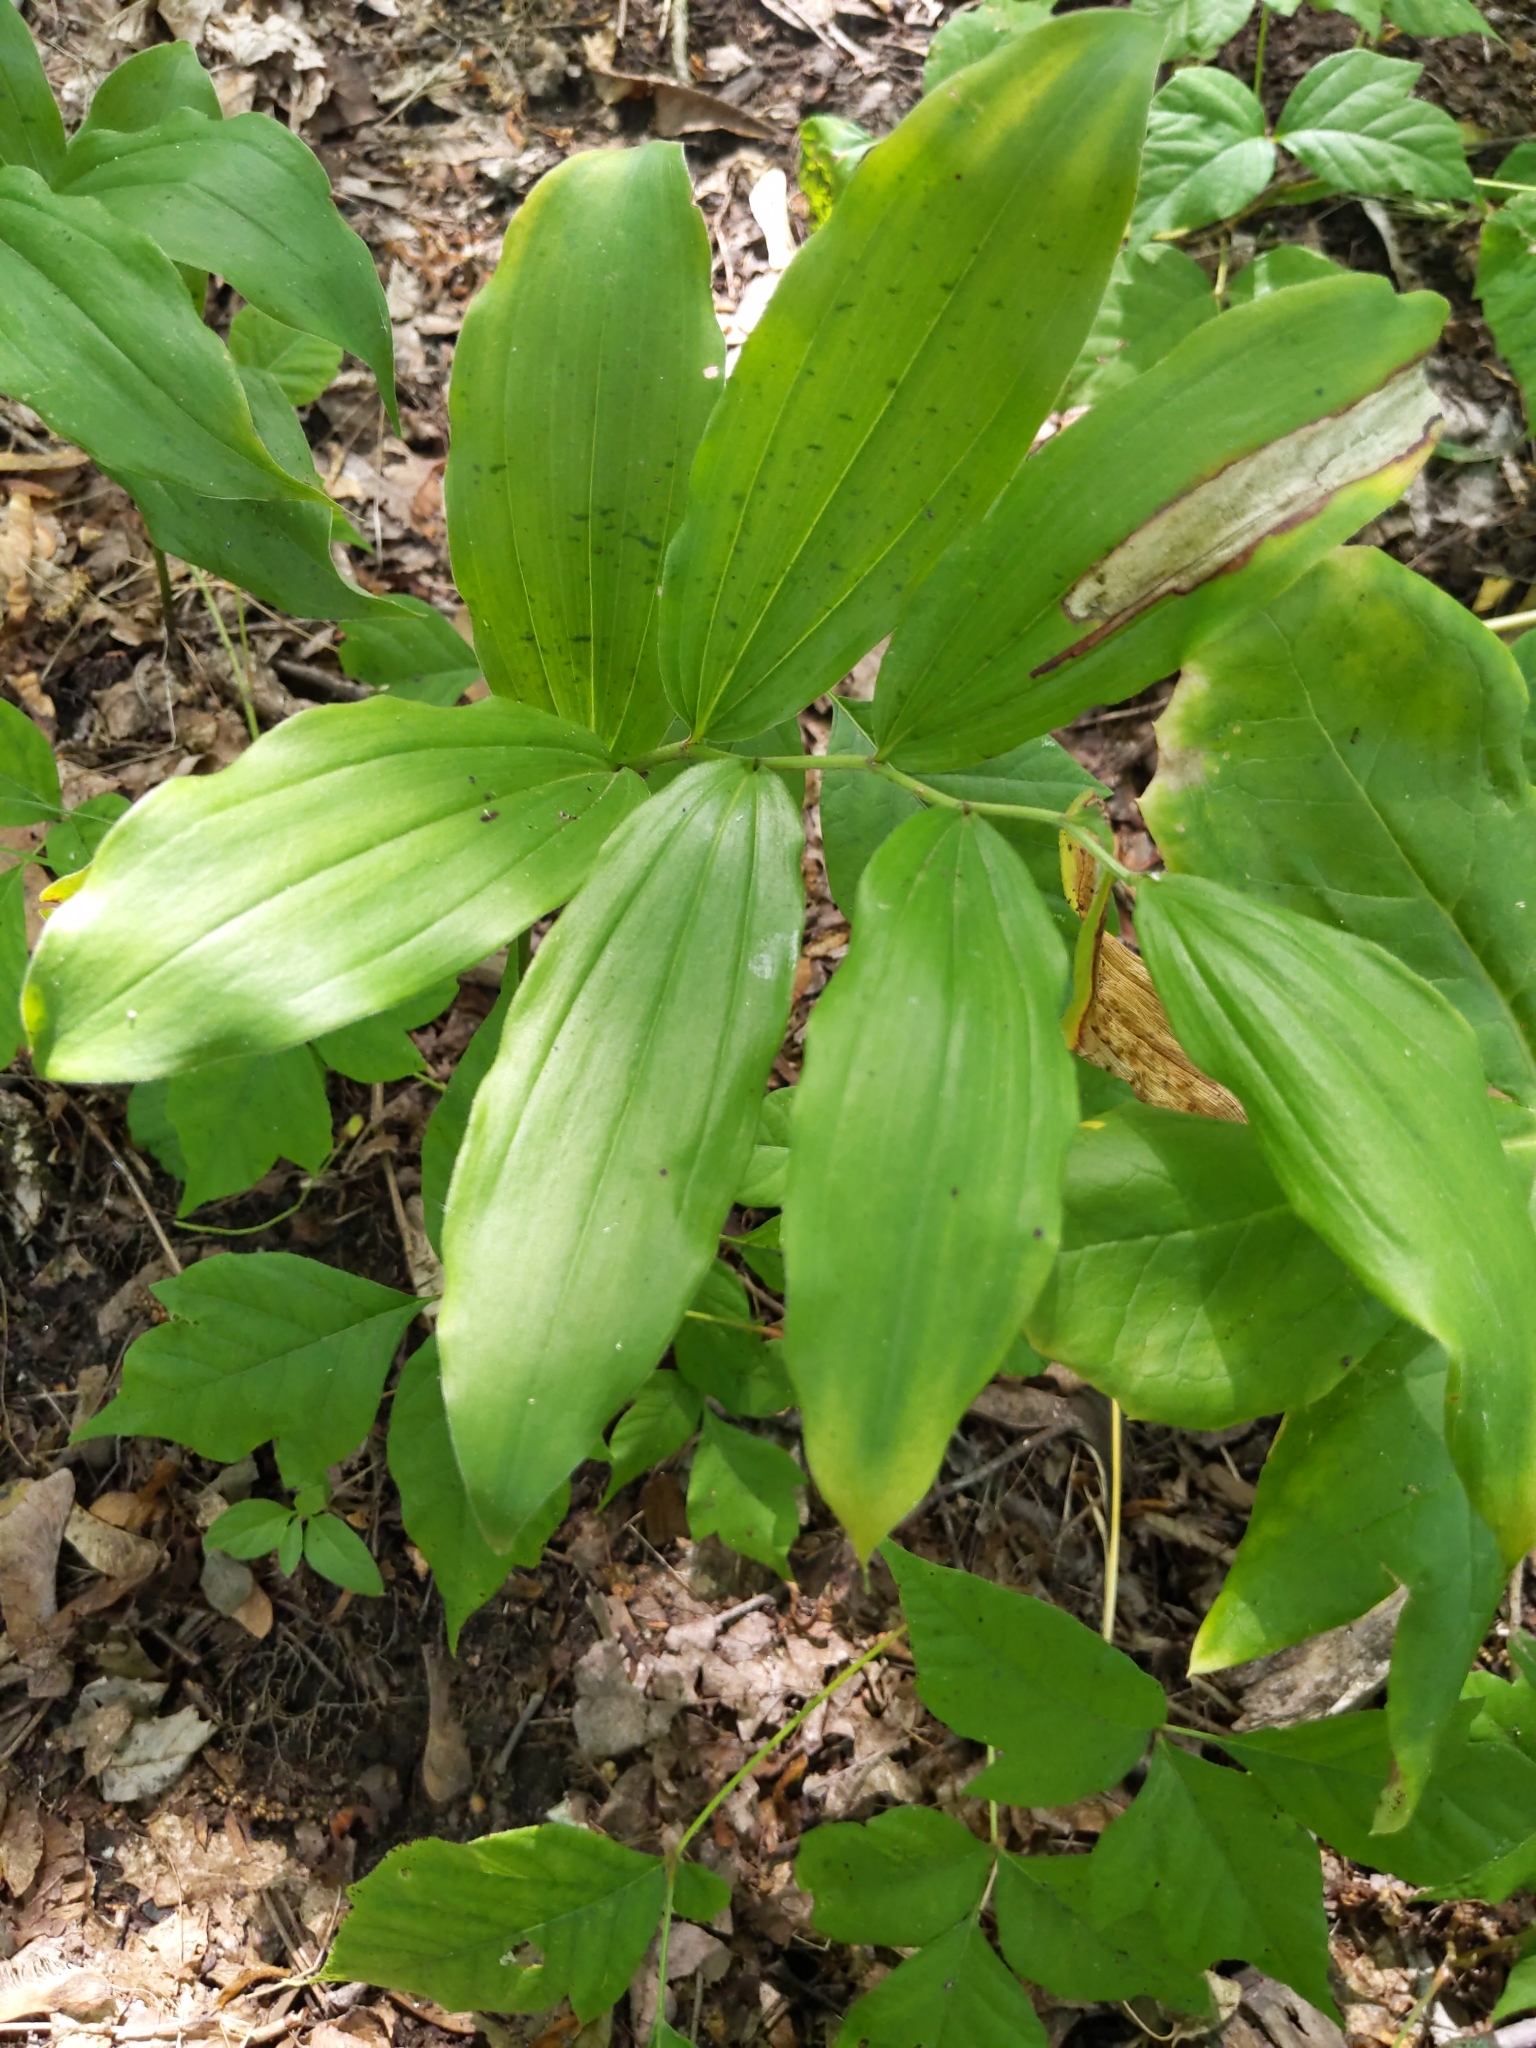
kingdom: Plantae
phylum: Tracheophyta
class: Liliopsida
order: Asparagales
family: Asparagaceae
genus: Maianthemum
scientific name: Maianthemum racemosum
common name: False spikenard
